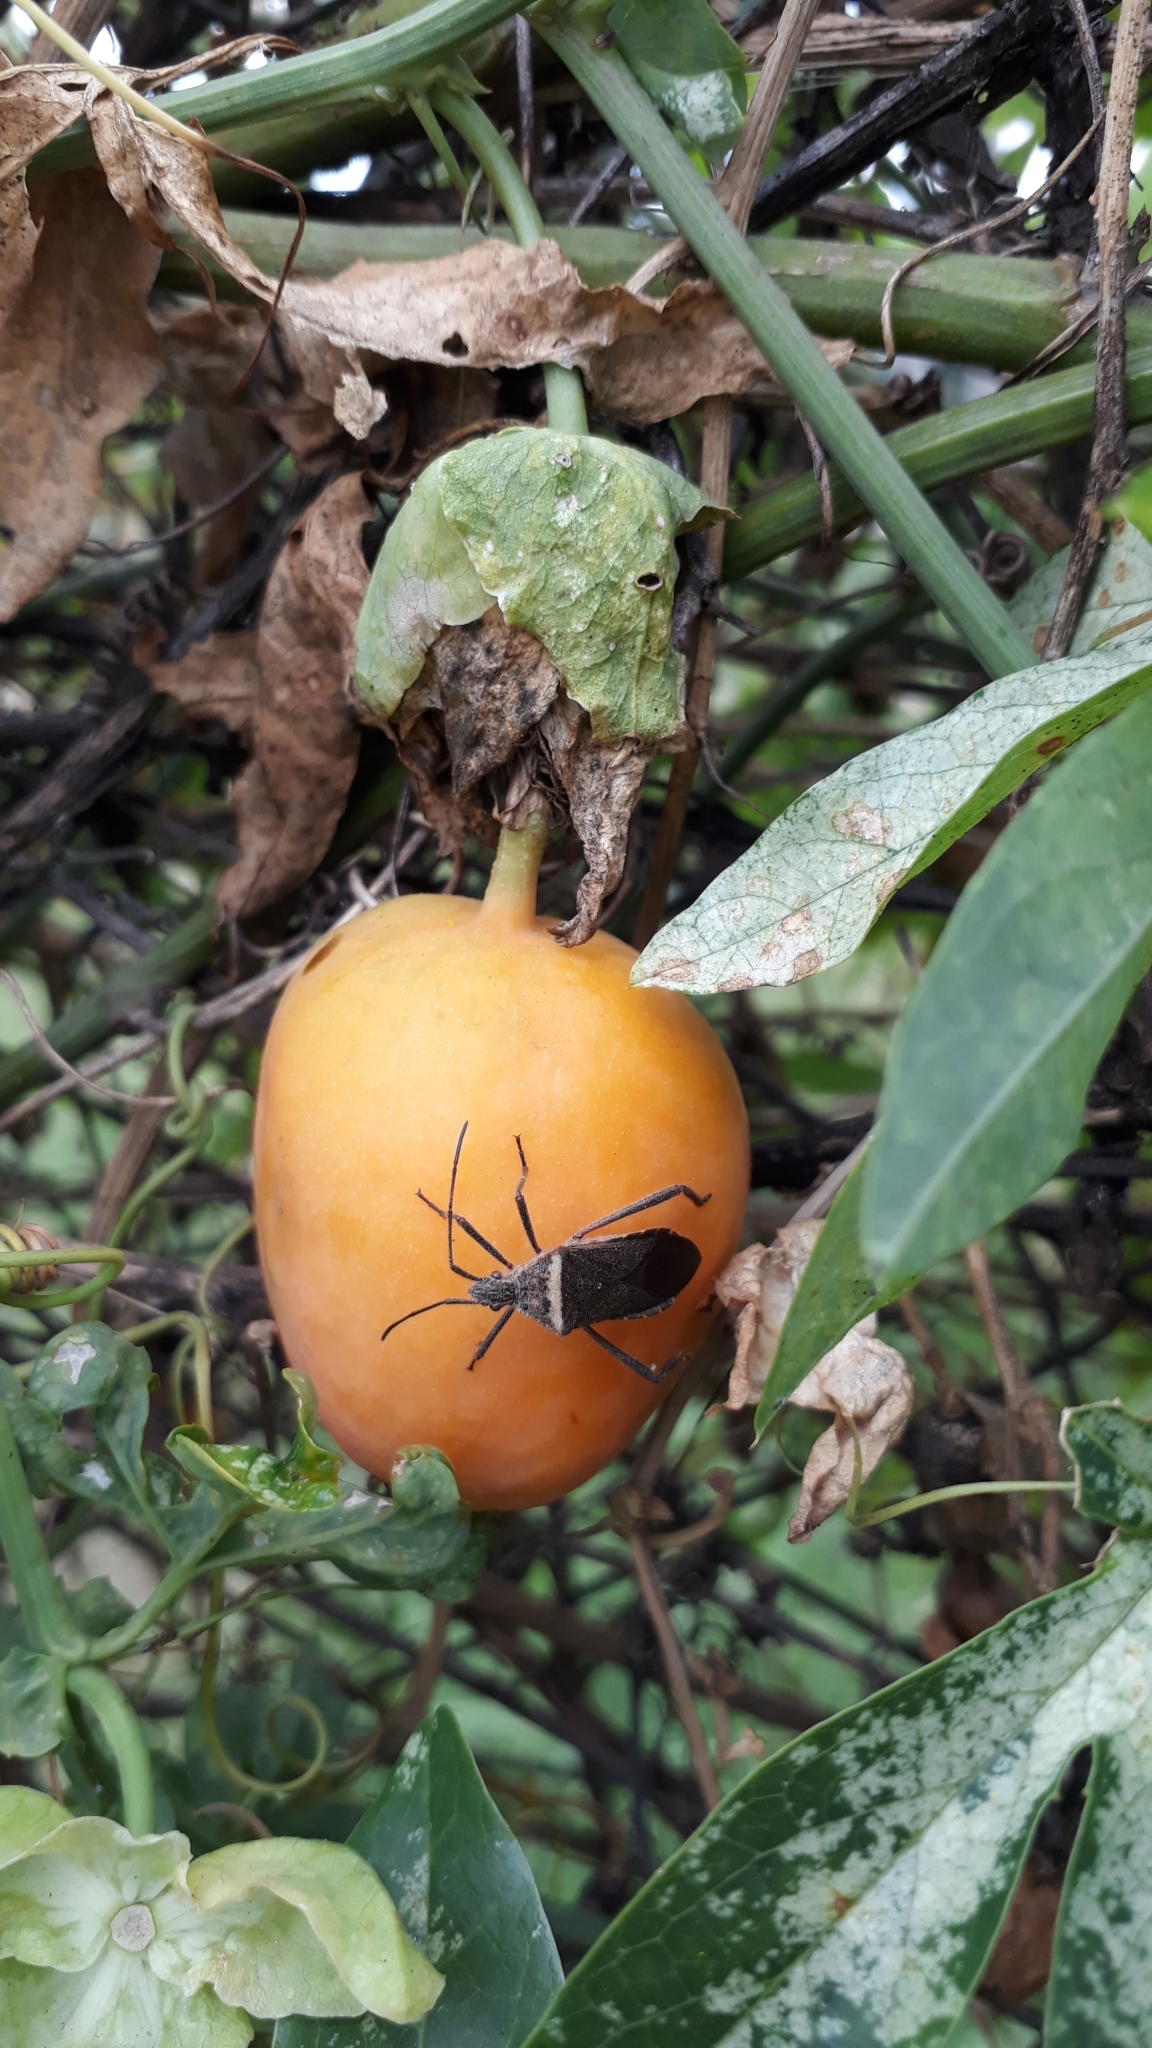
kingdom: Animalia
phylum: Arthropoda
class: Insecta
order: Hemiptera
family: Coreidae
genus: Phthiacnemia
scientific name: Phthiacnemia picta
